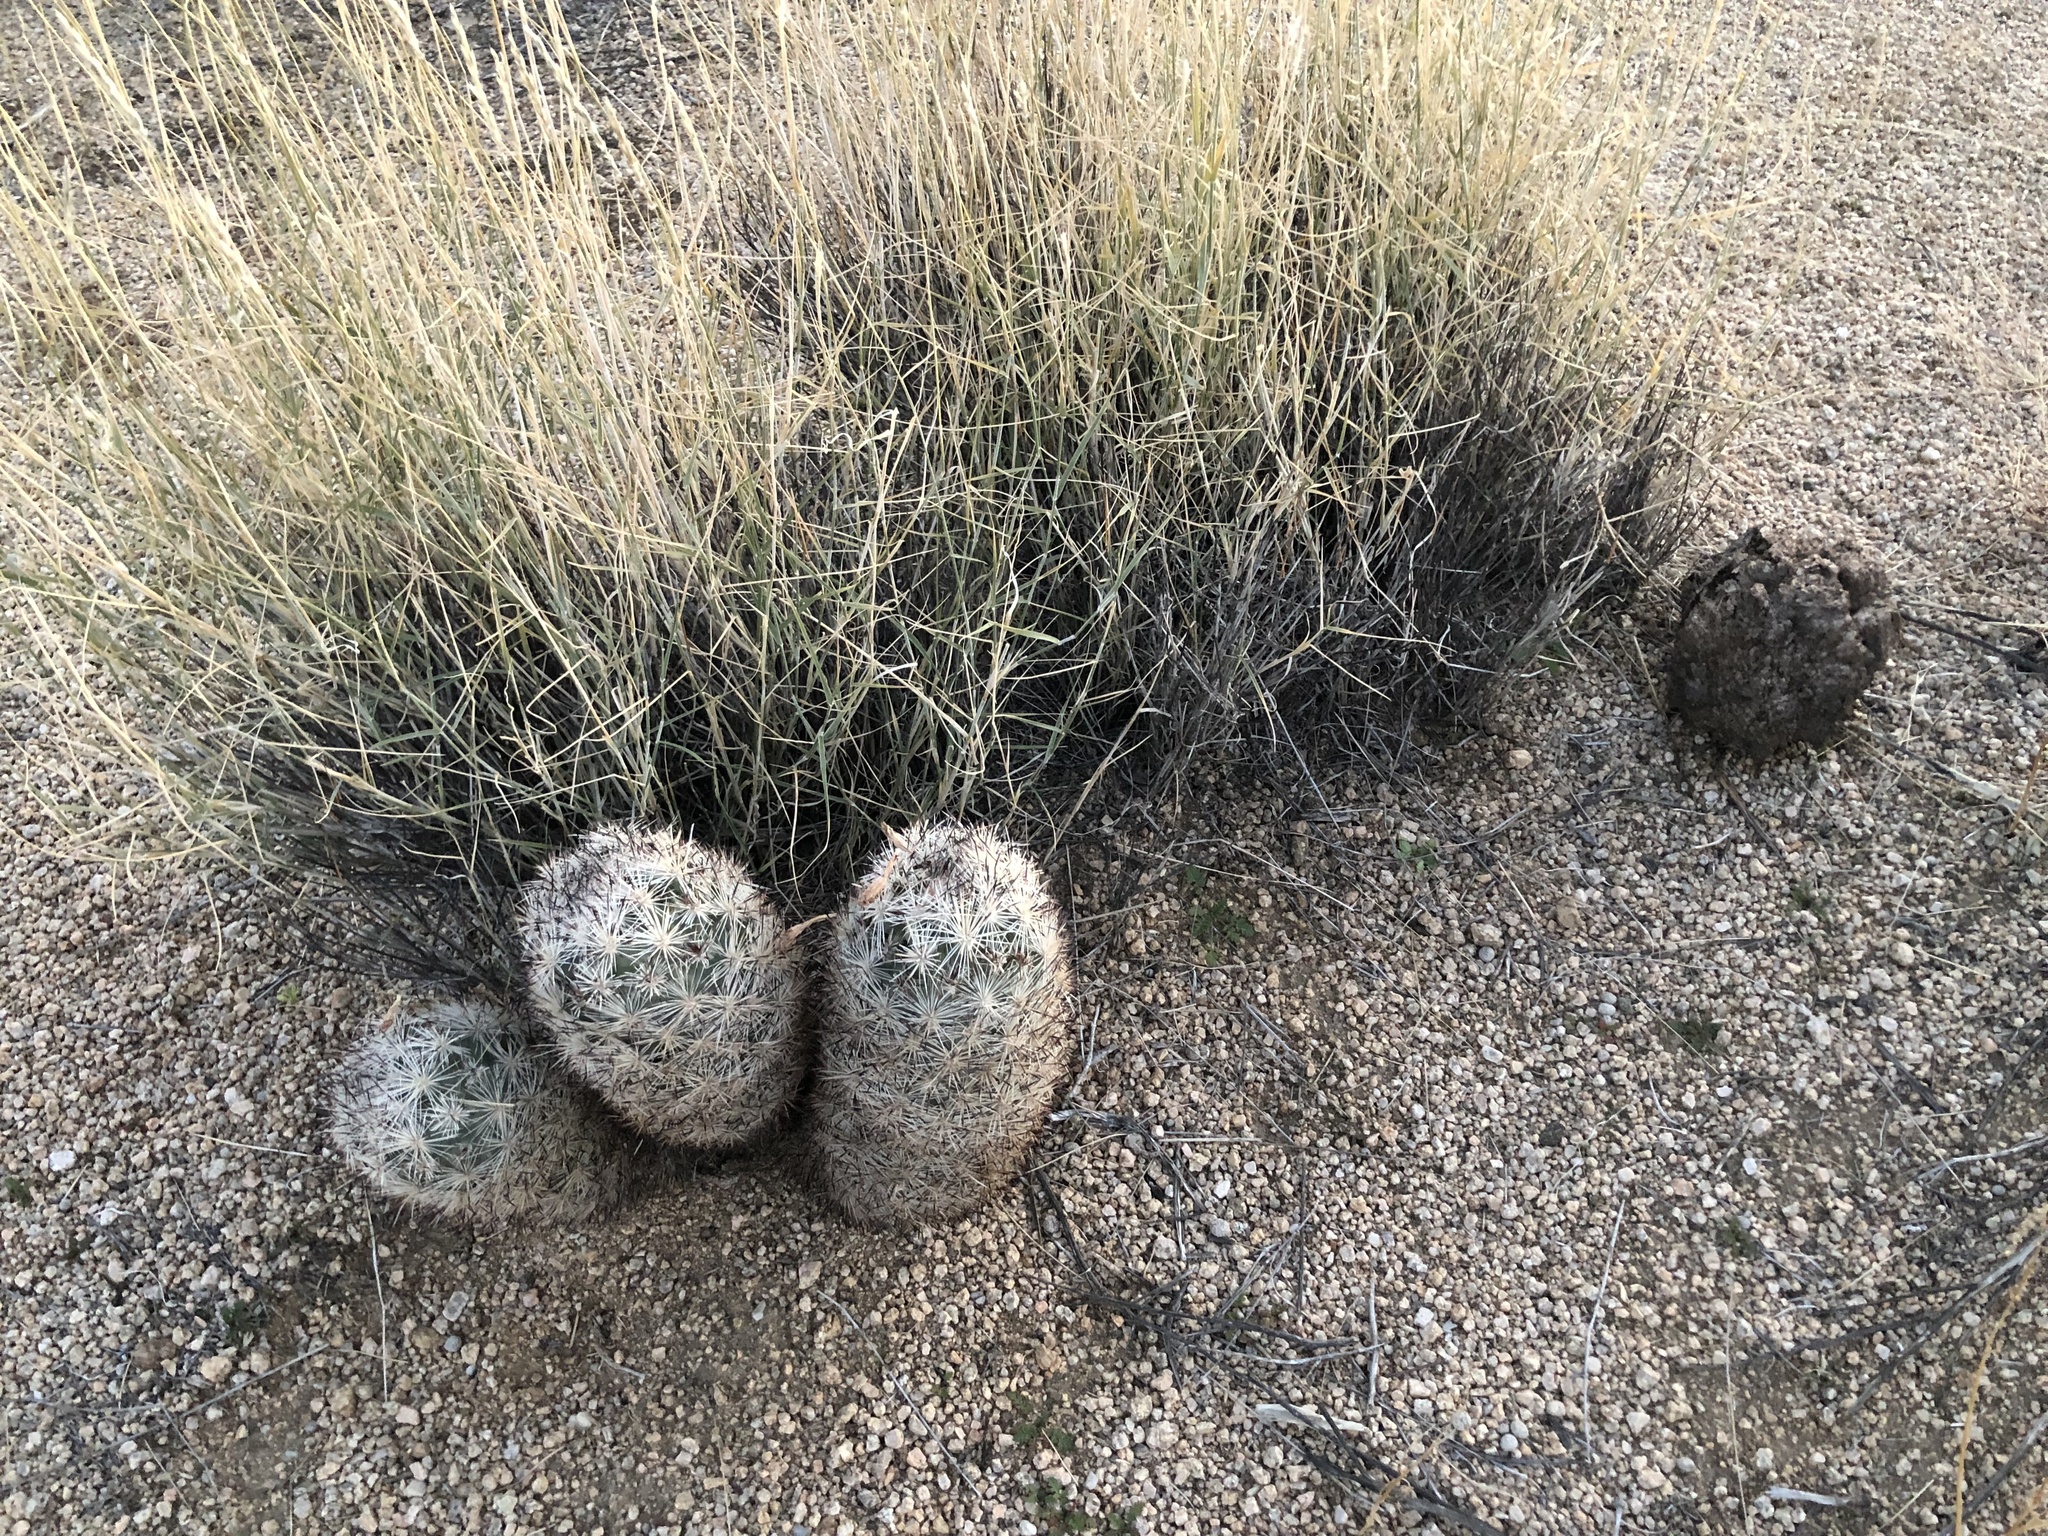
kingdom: Plantae
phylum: Tracheophyta
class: Magnoliopsida
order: Caryophyllales
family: Cactaceae
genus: Pelecyphora
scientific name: Pelecyphora alversonii
